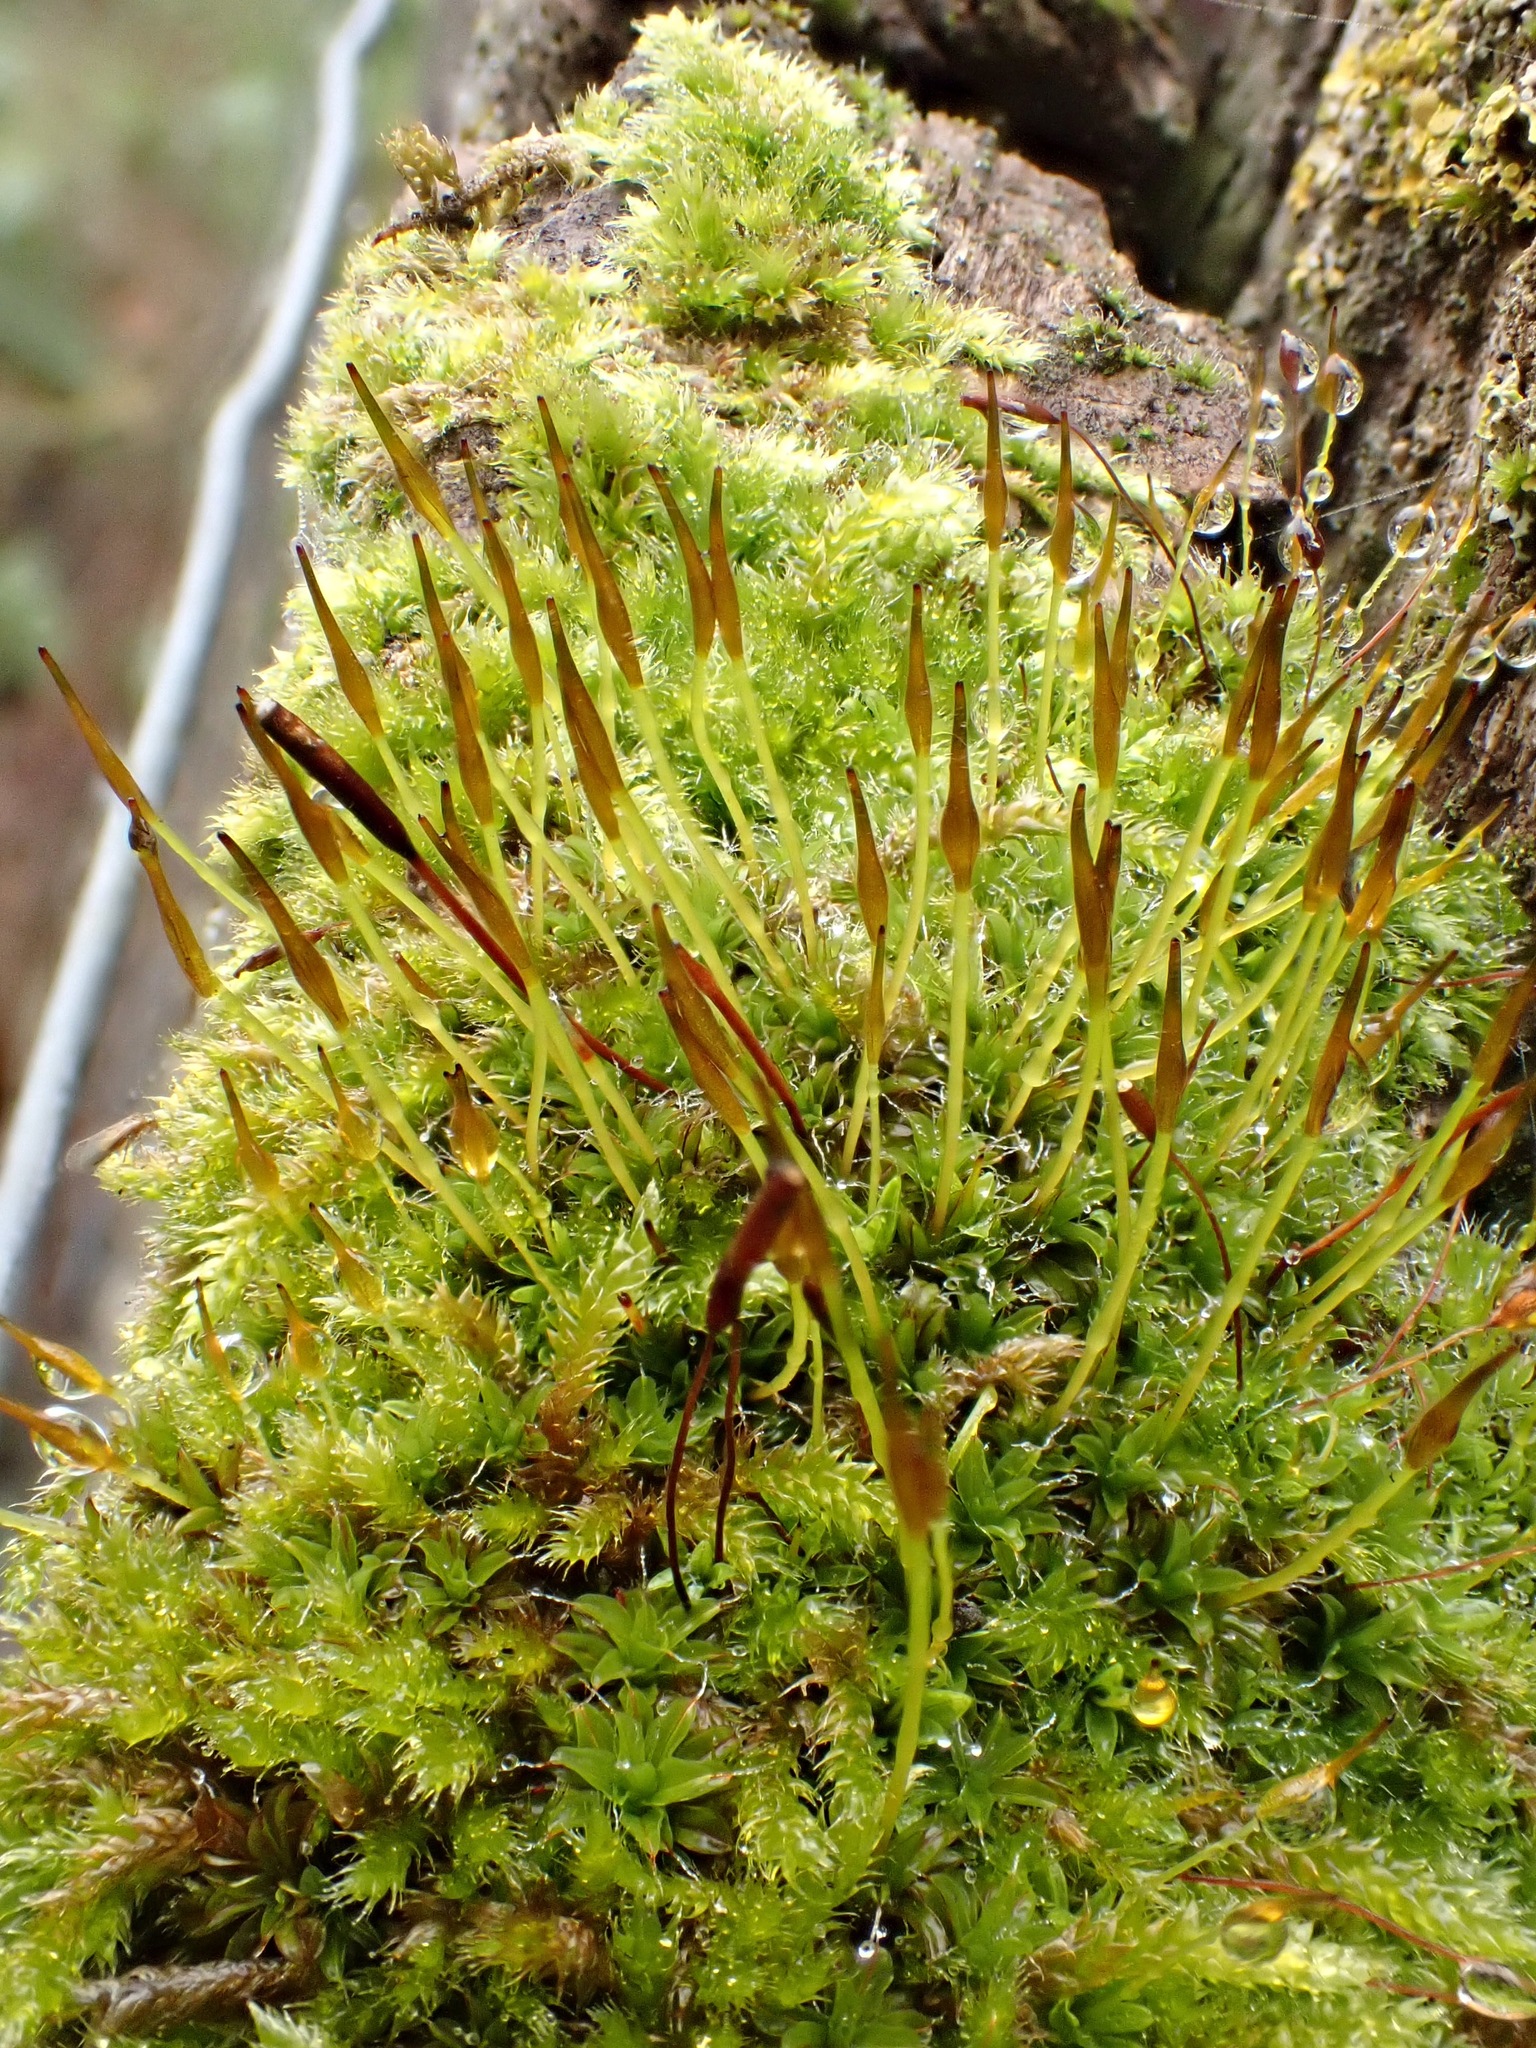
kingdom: Plantae
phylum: Bryophyta
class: Bryopsida
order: Pottiales
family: Pottiaceae
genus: Tortula
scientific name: Tortula muralis
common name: Wall screw-moss
